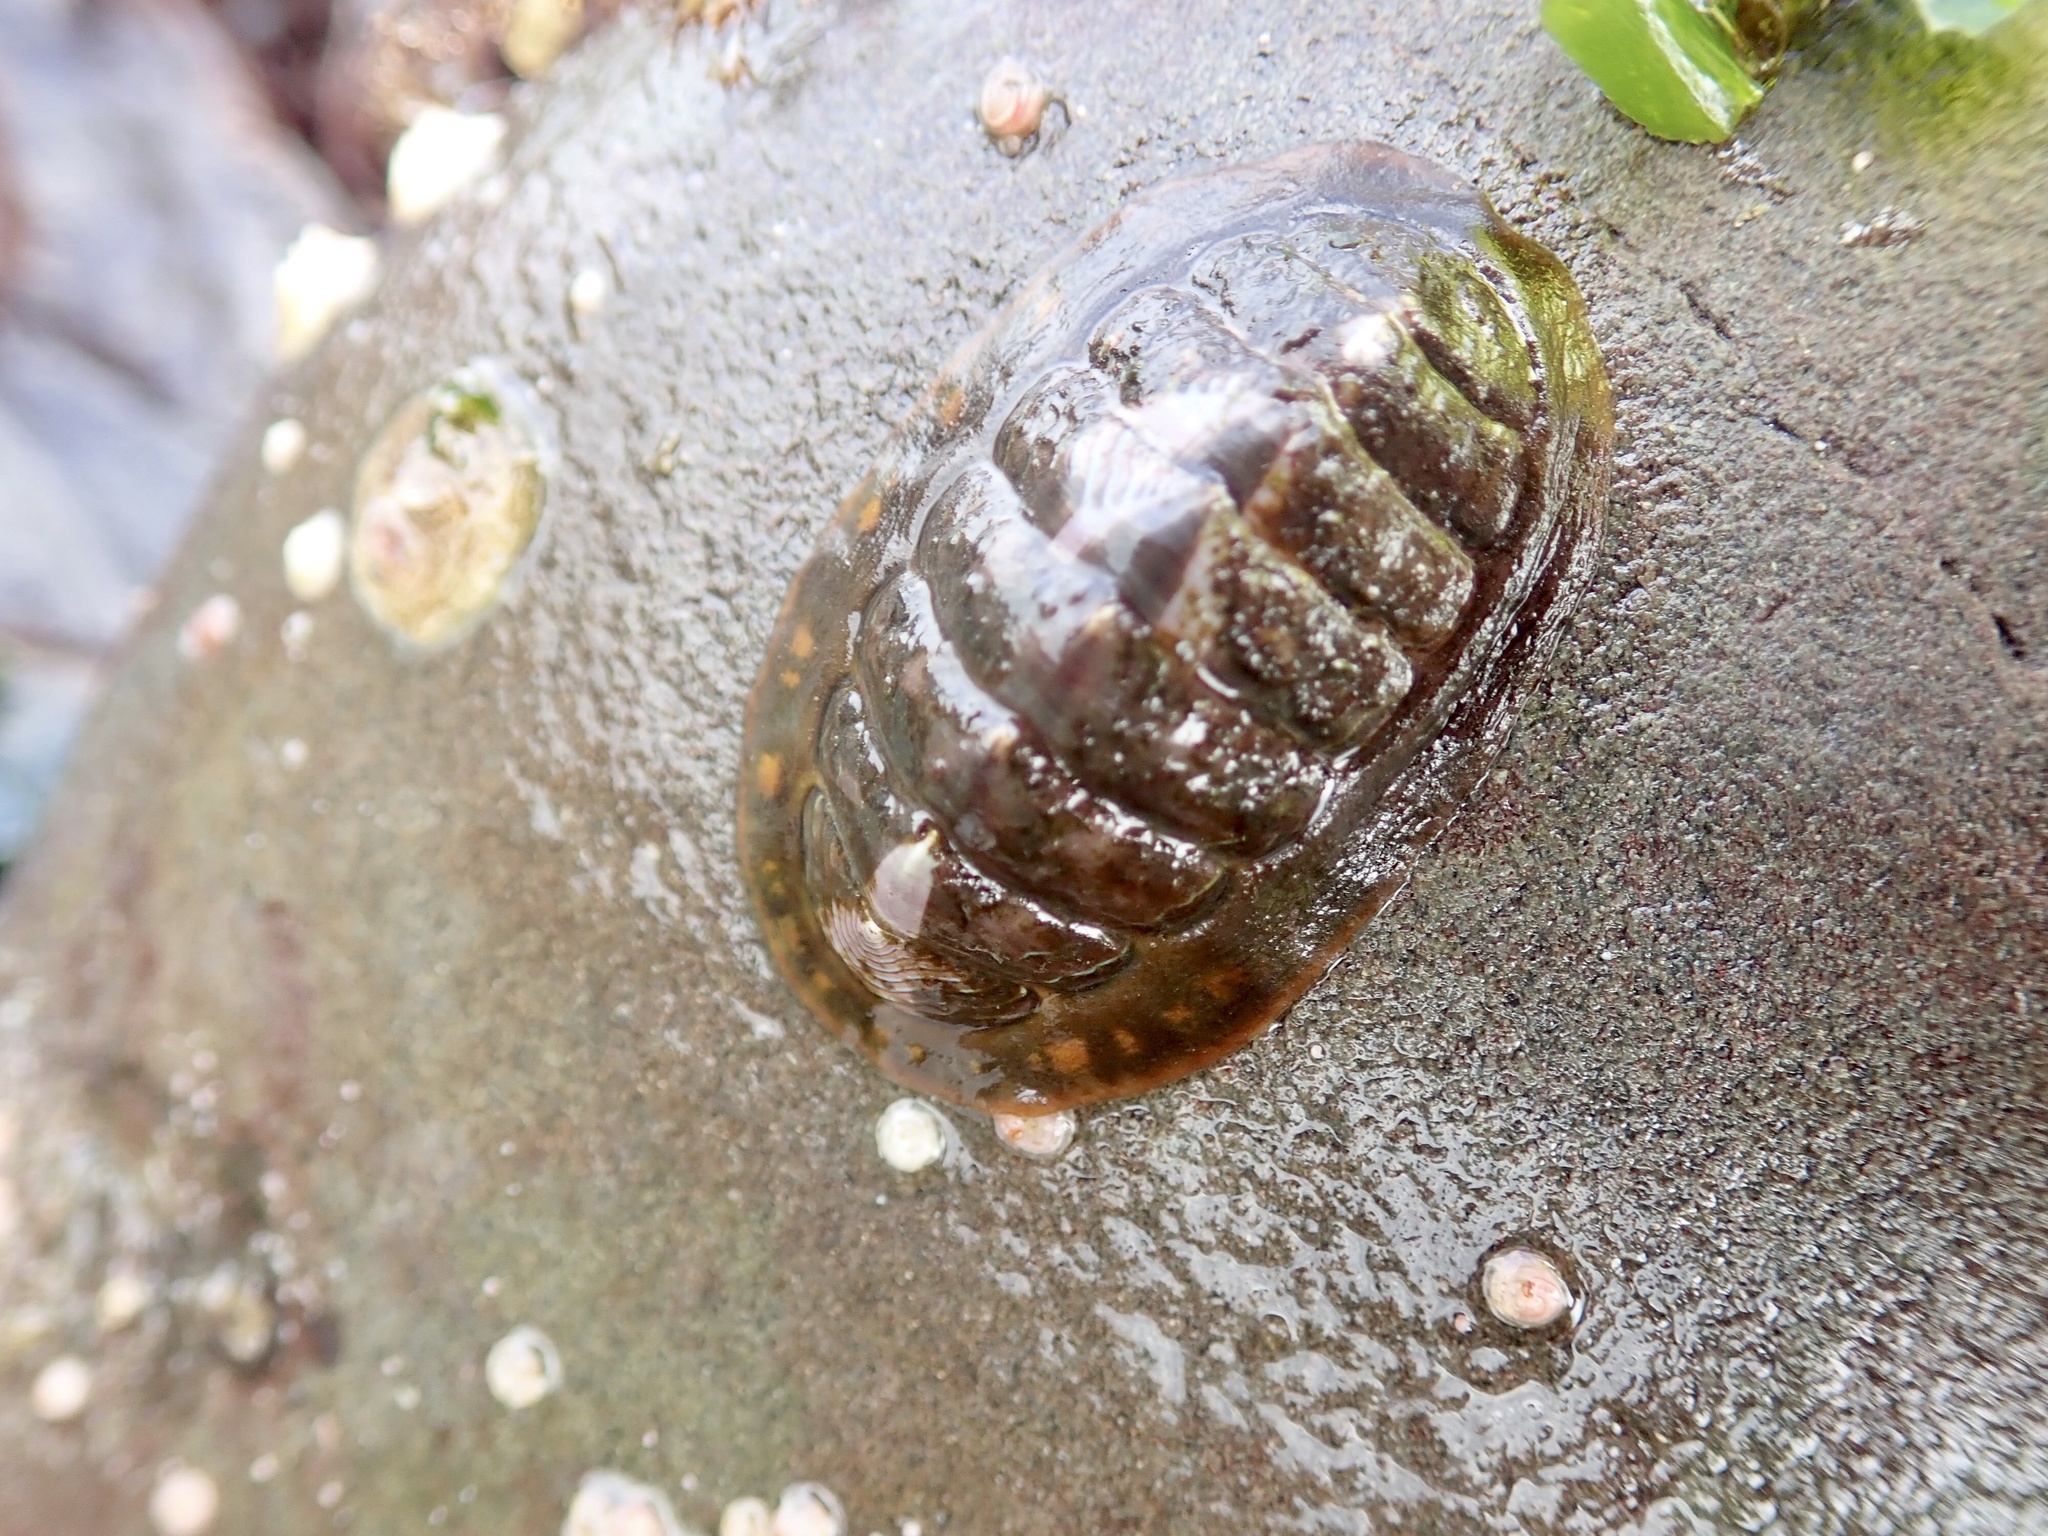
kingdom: Animalia
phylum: Mollusca
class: Polyplacophora
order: Chitonida
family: Tonicellidae
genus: Tonicella
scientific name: Tonicella lineata
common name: Lined chiton
